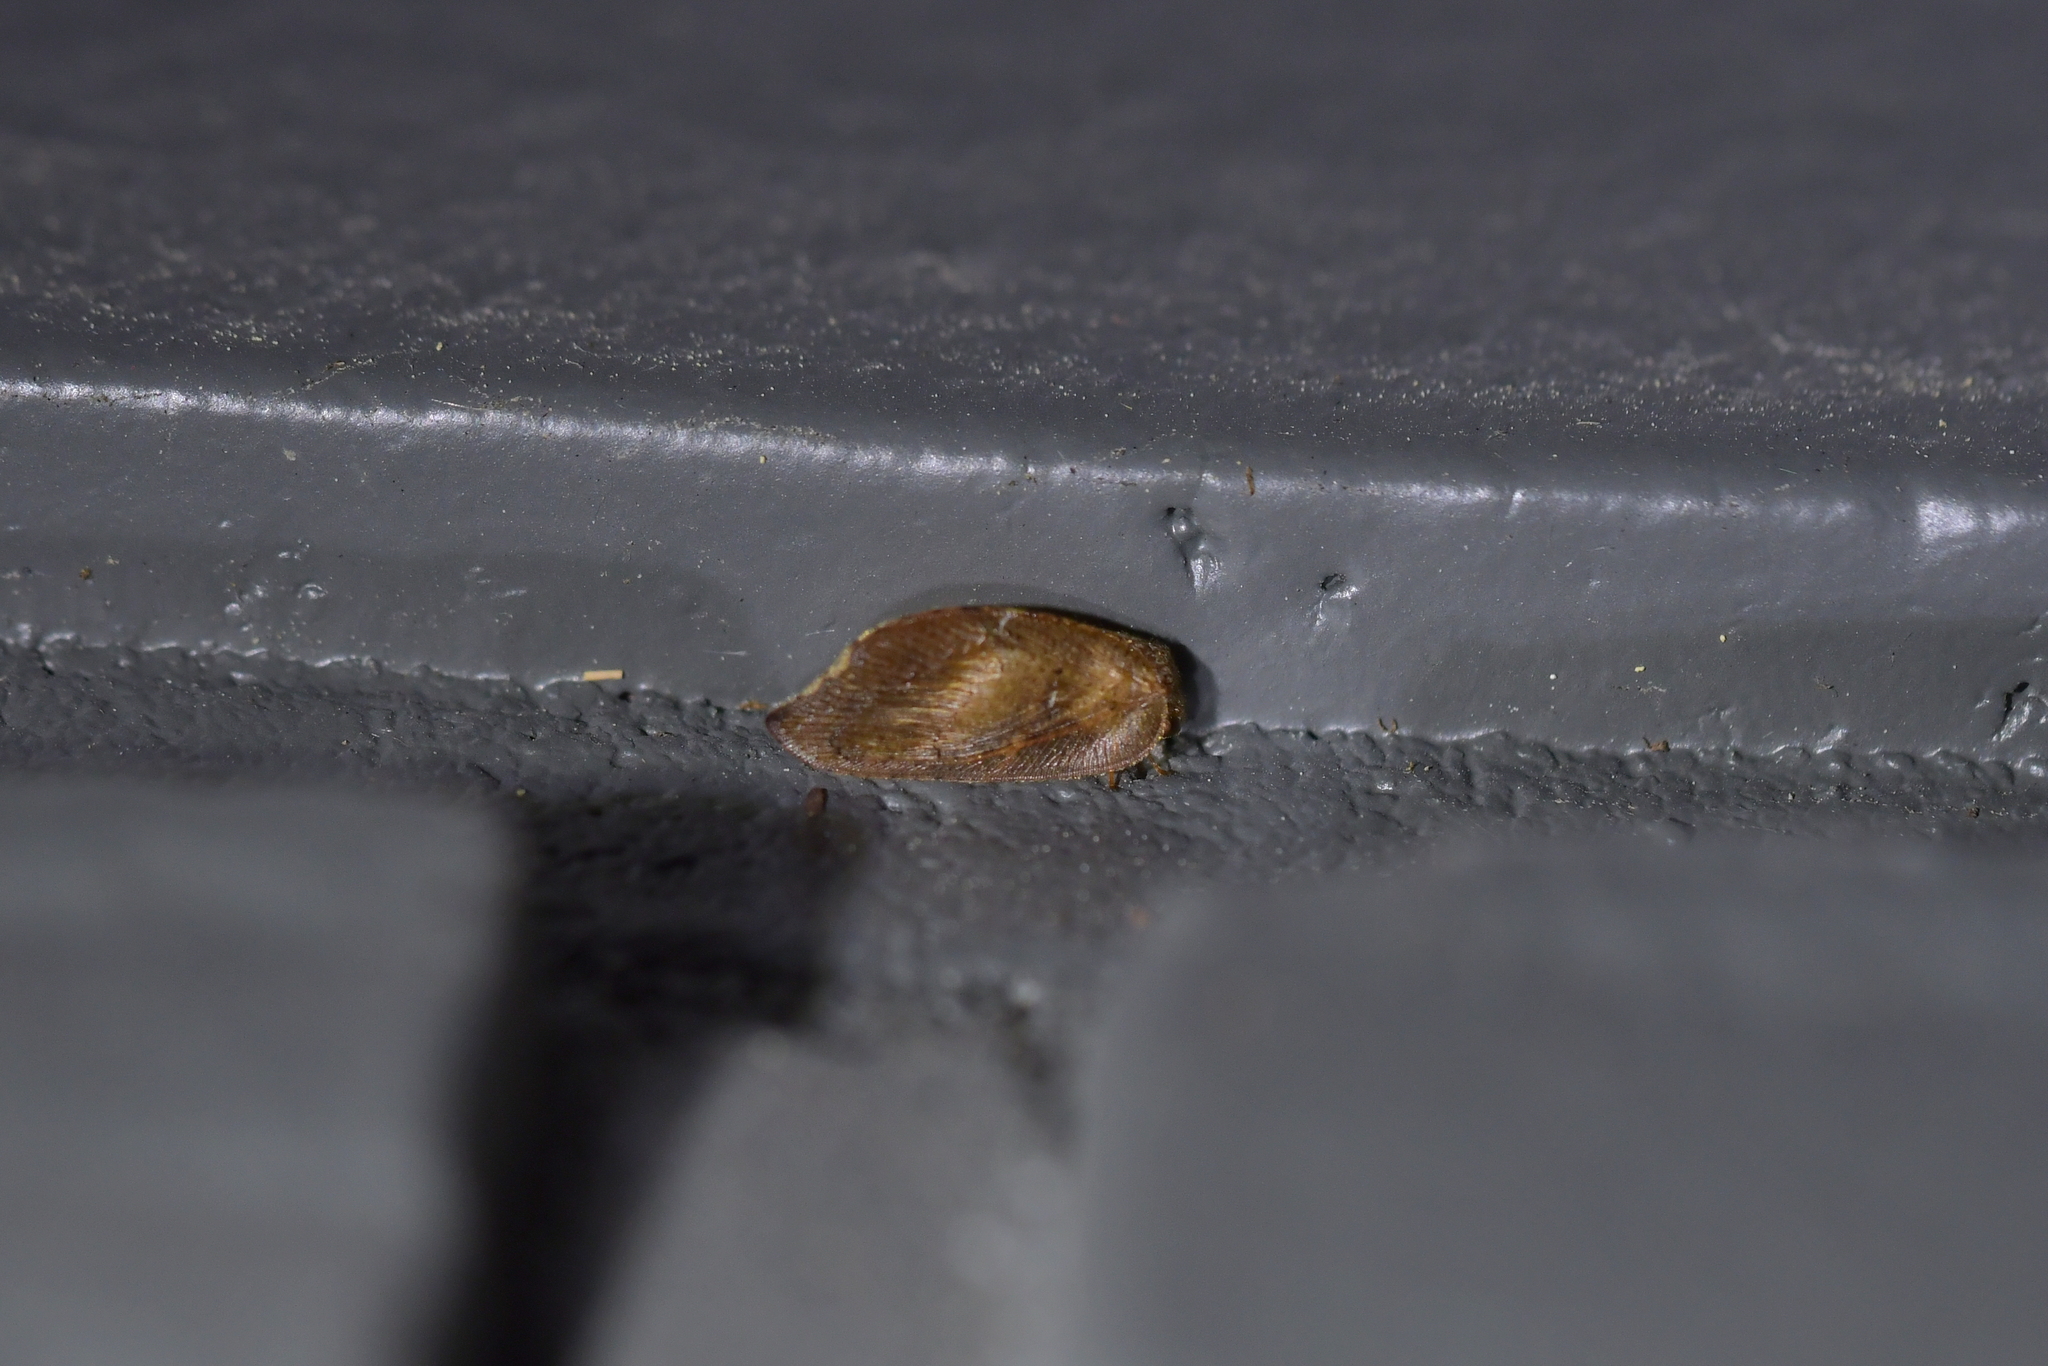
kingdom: Animalia
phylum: Arthropoda
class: Insecta
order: Neuroptera
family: Hemerobiidae
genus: Drepanacra
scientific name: Drepanacra binocula
